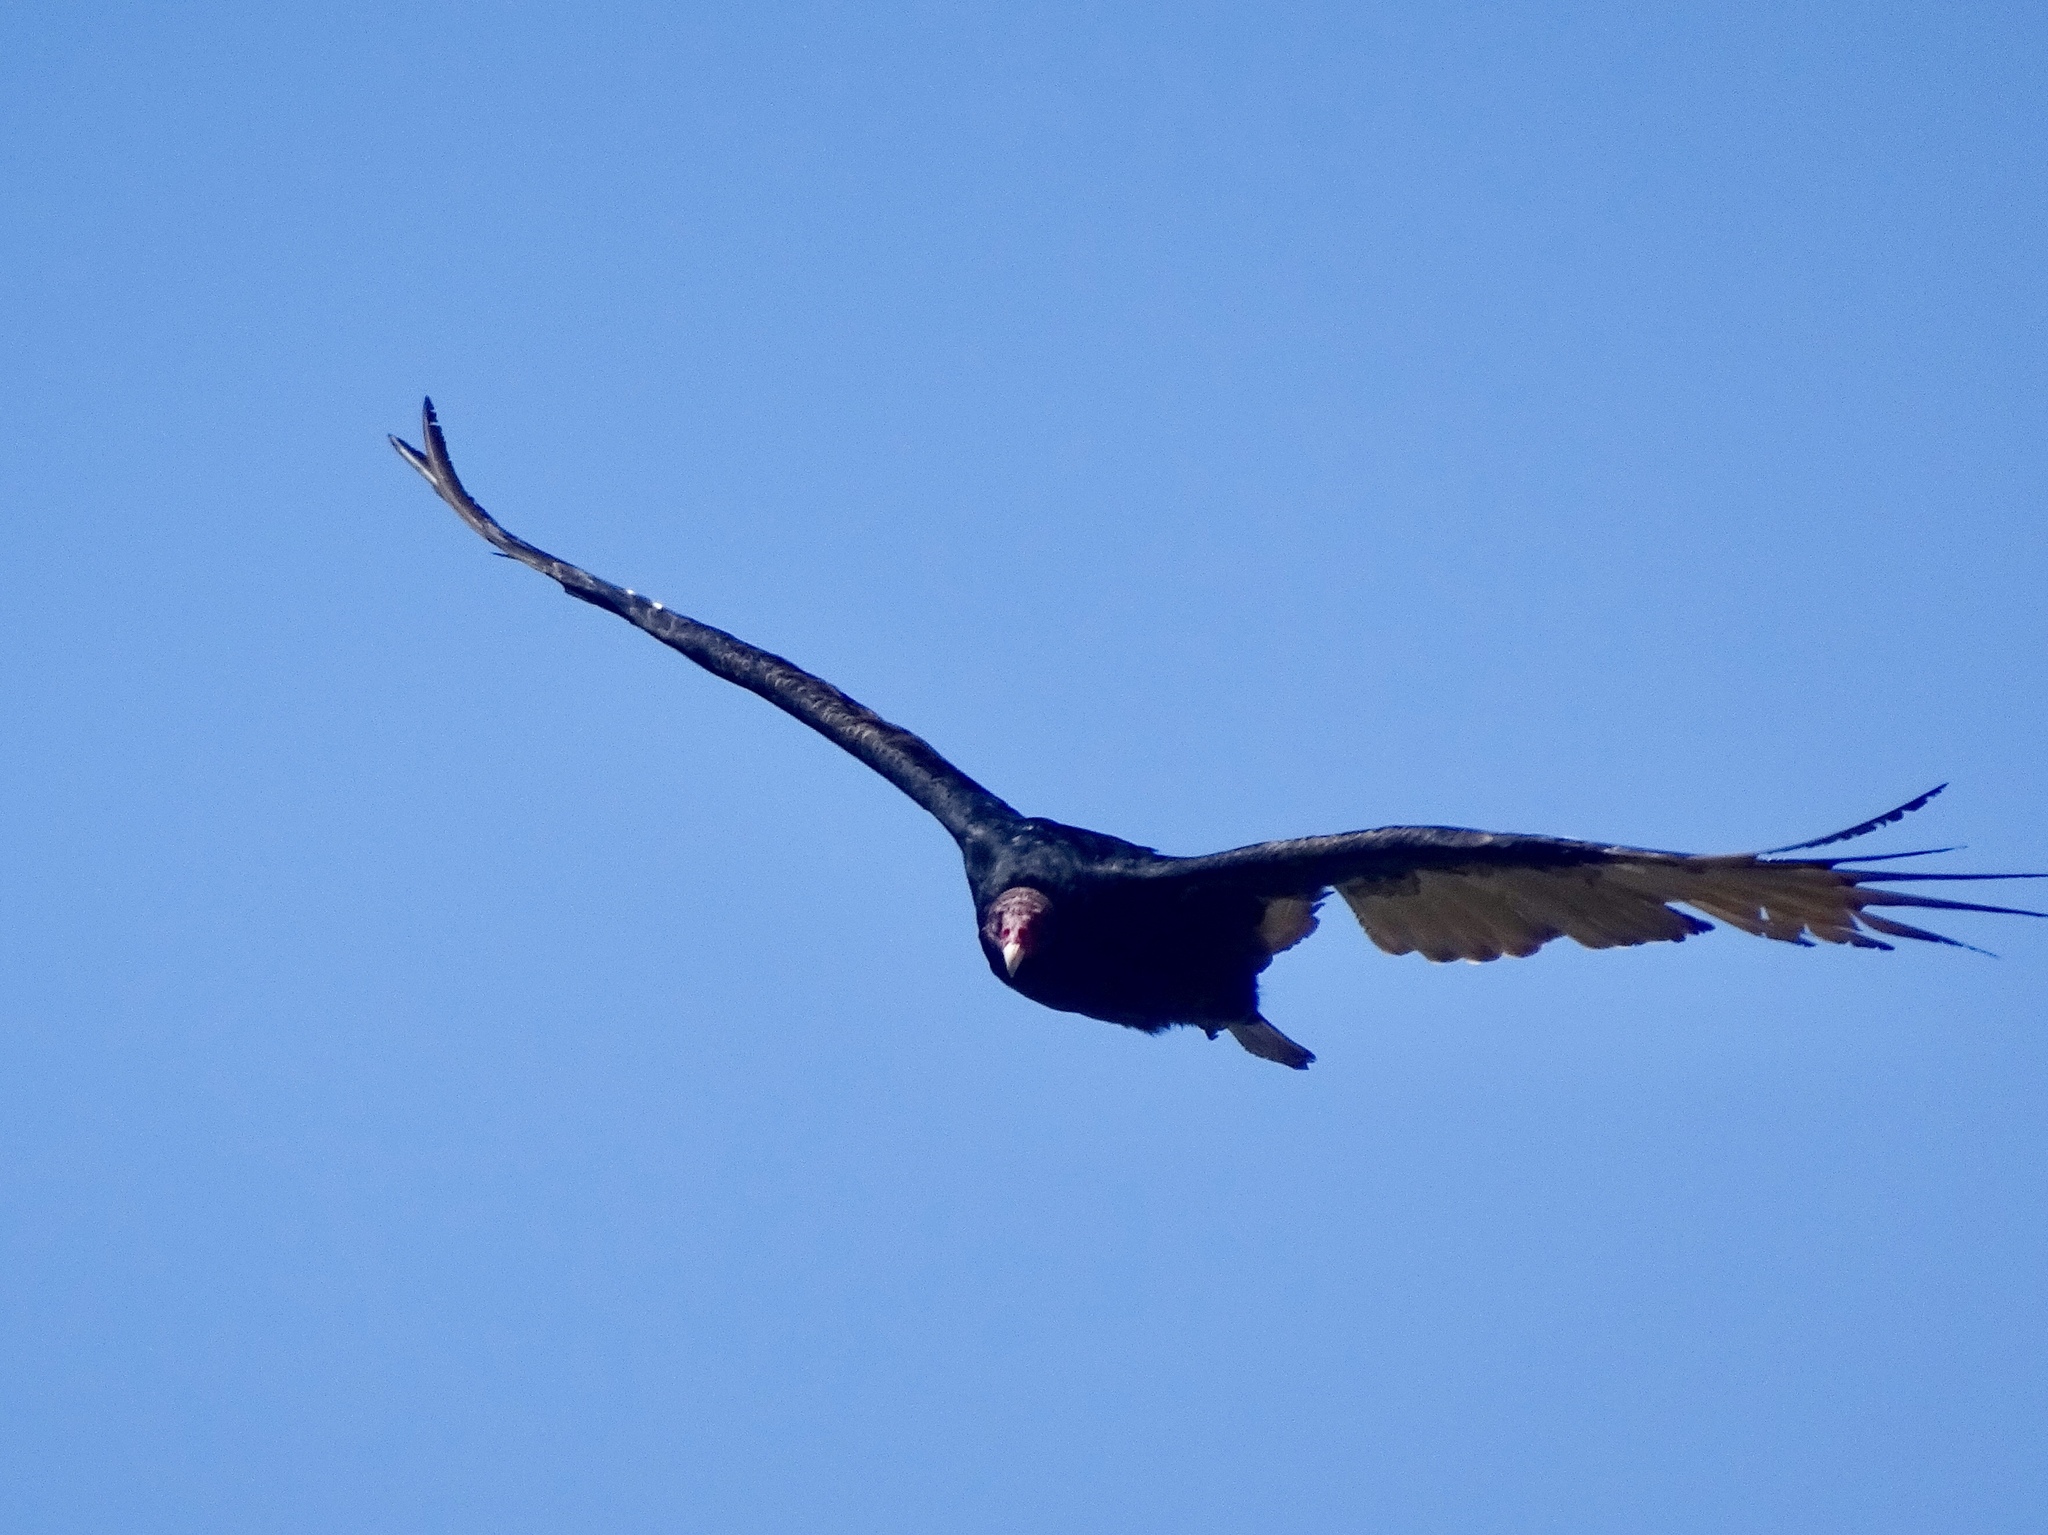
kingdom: Animalia
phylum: Chordata
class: Aves
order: Accipitriformes
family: Cathartidae
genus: Cathartes
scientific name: Cathartes aura
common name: Turkey vulture
